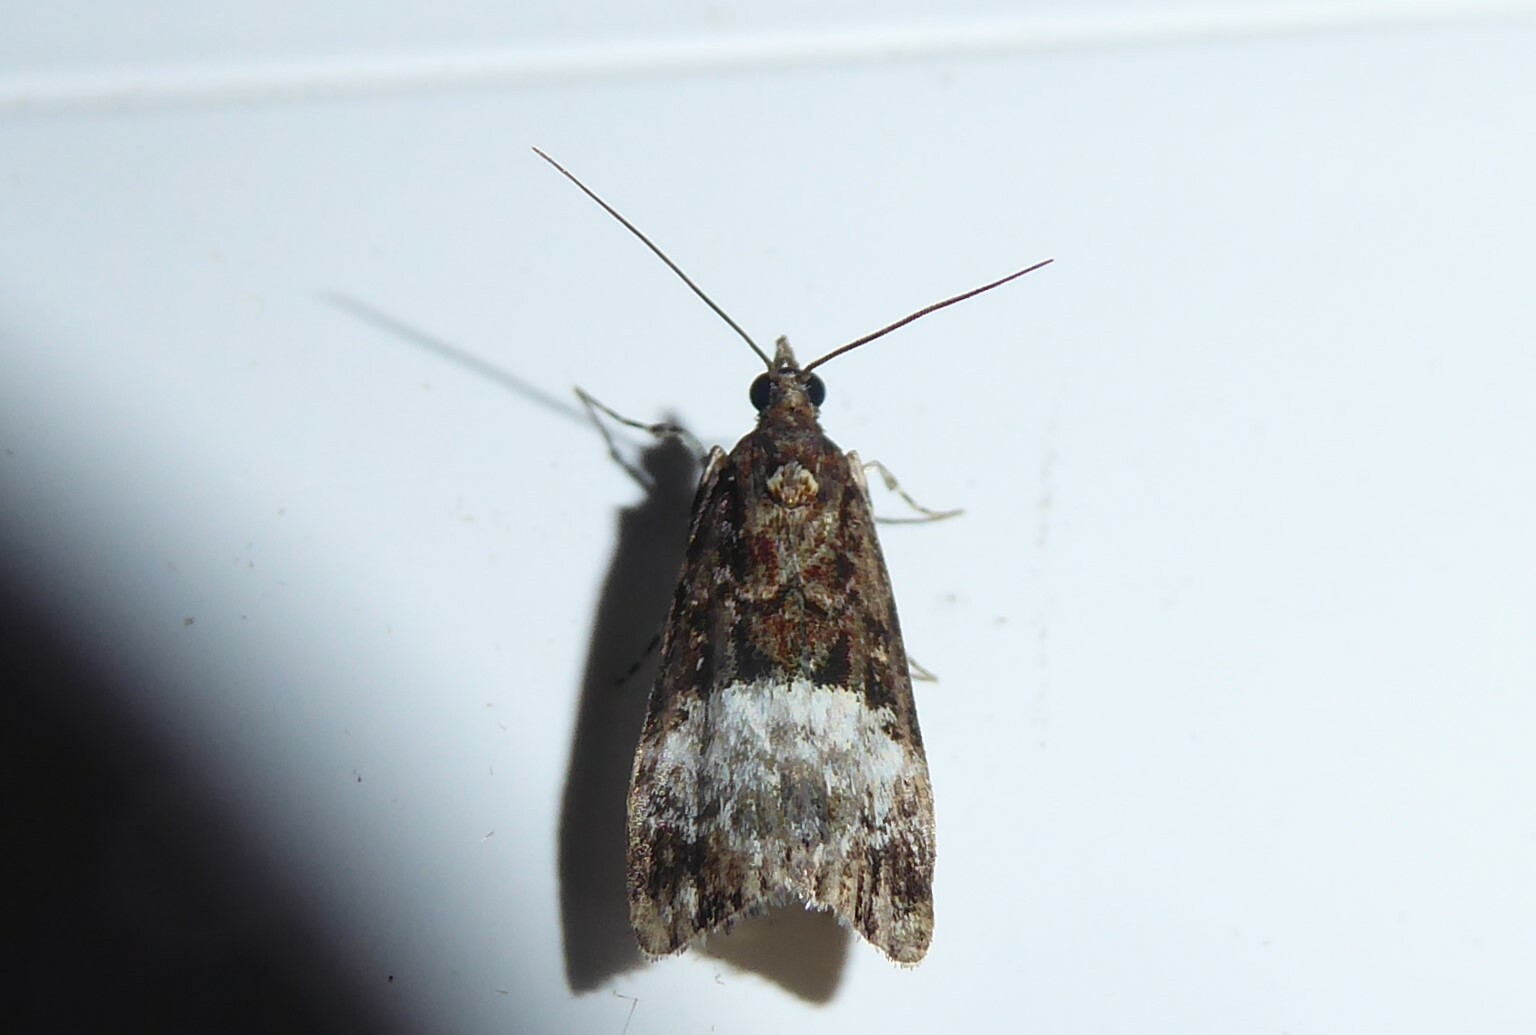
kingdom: Animalia
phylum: Arthropoda
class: Insecta
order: Lepidoptera
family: Crambidae
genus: Scoparia
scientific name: Scoparia minusculalis
